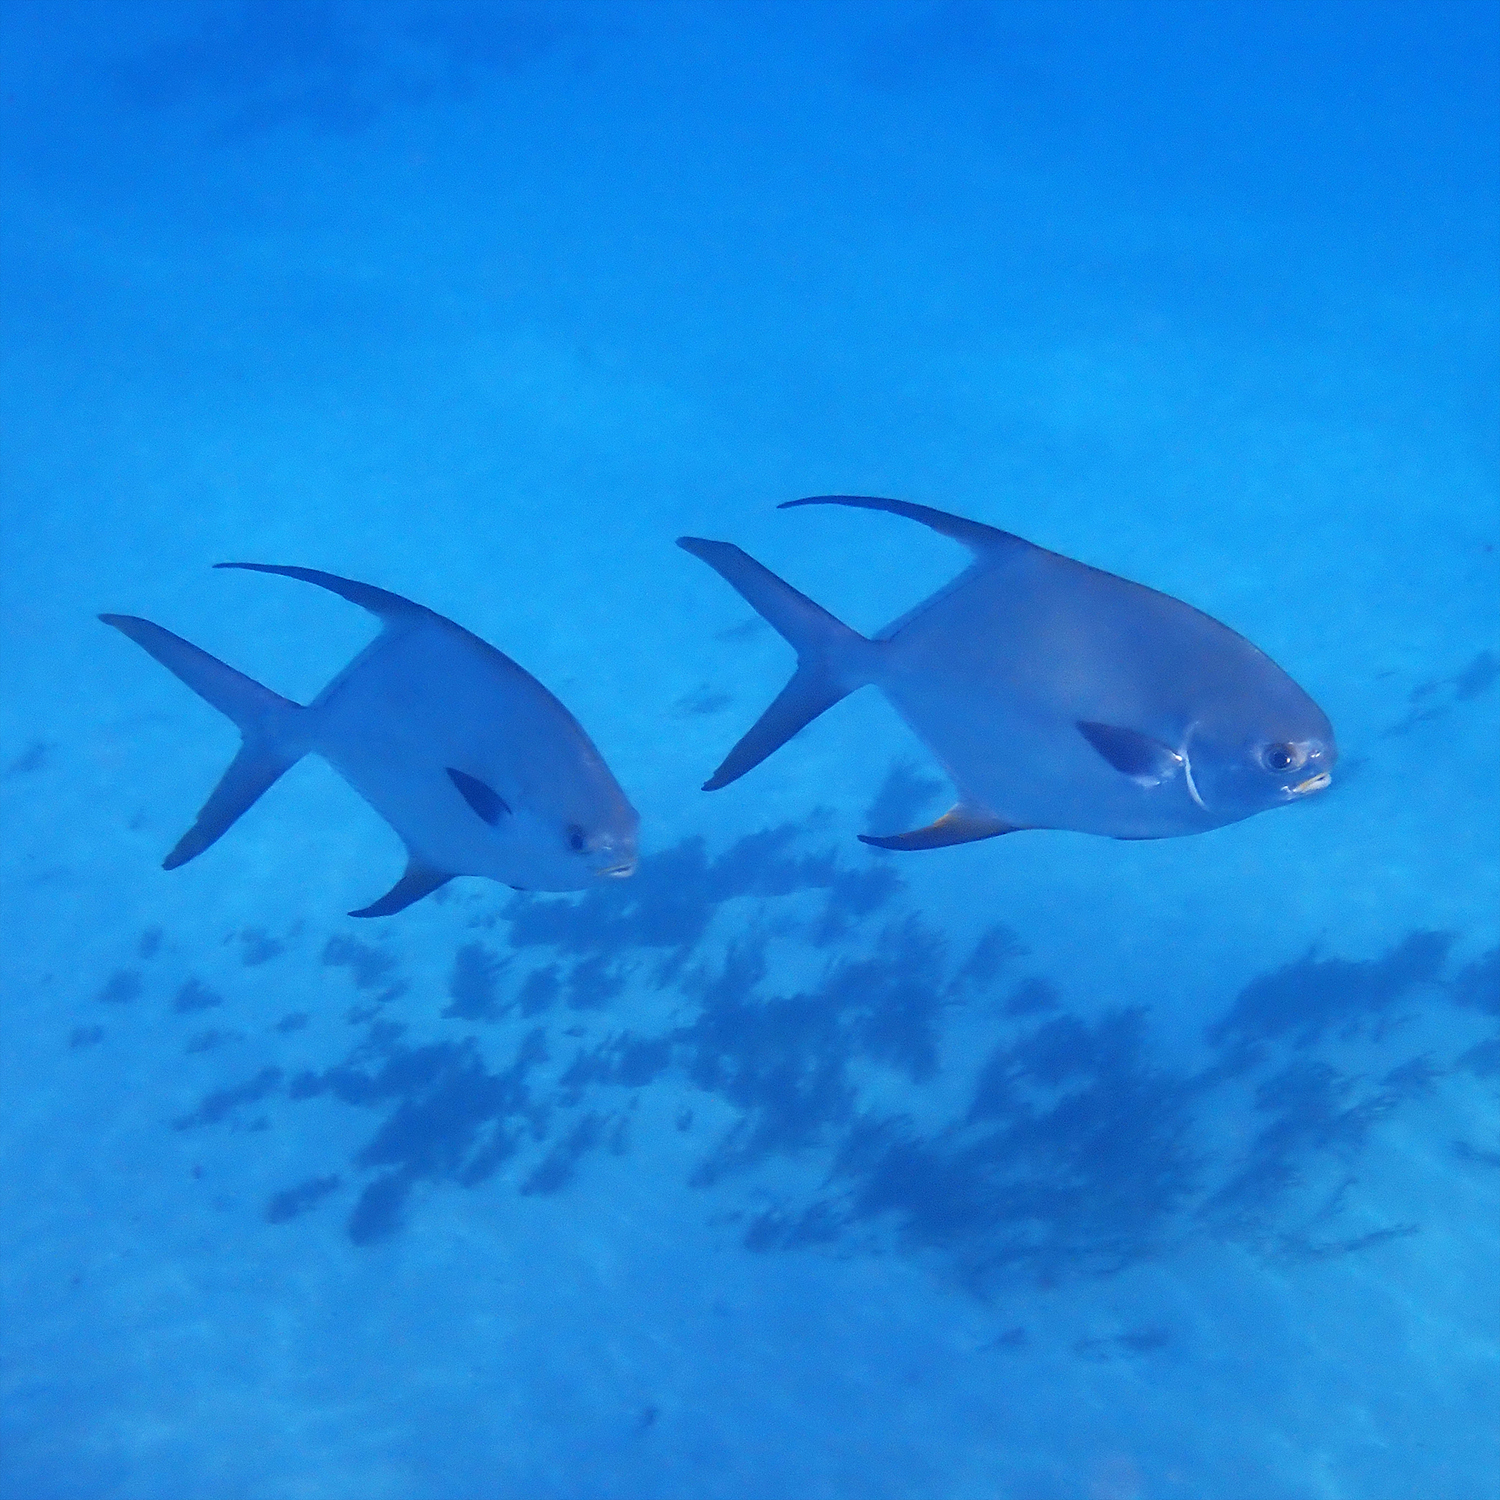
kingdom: Animalia
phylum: Chordata
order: Perciformes
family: Carangidae
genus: Trachinotus
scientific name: Trachinotus blochii
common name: Snubnose pompano
